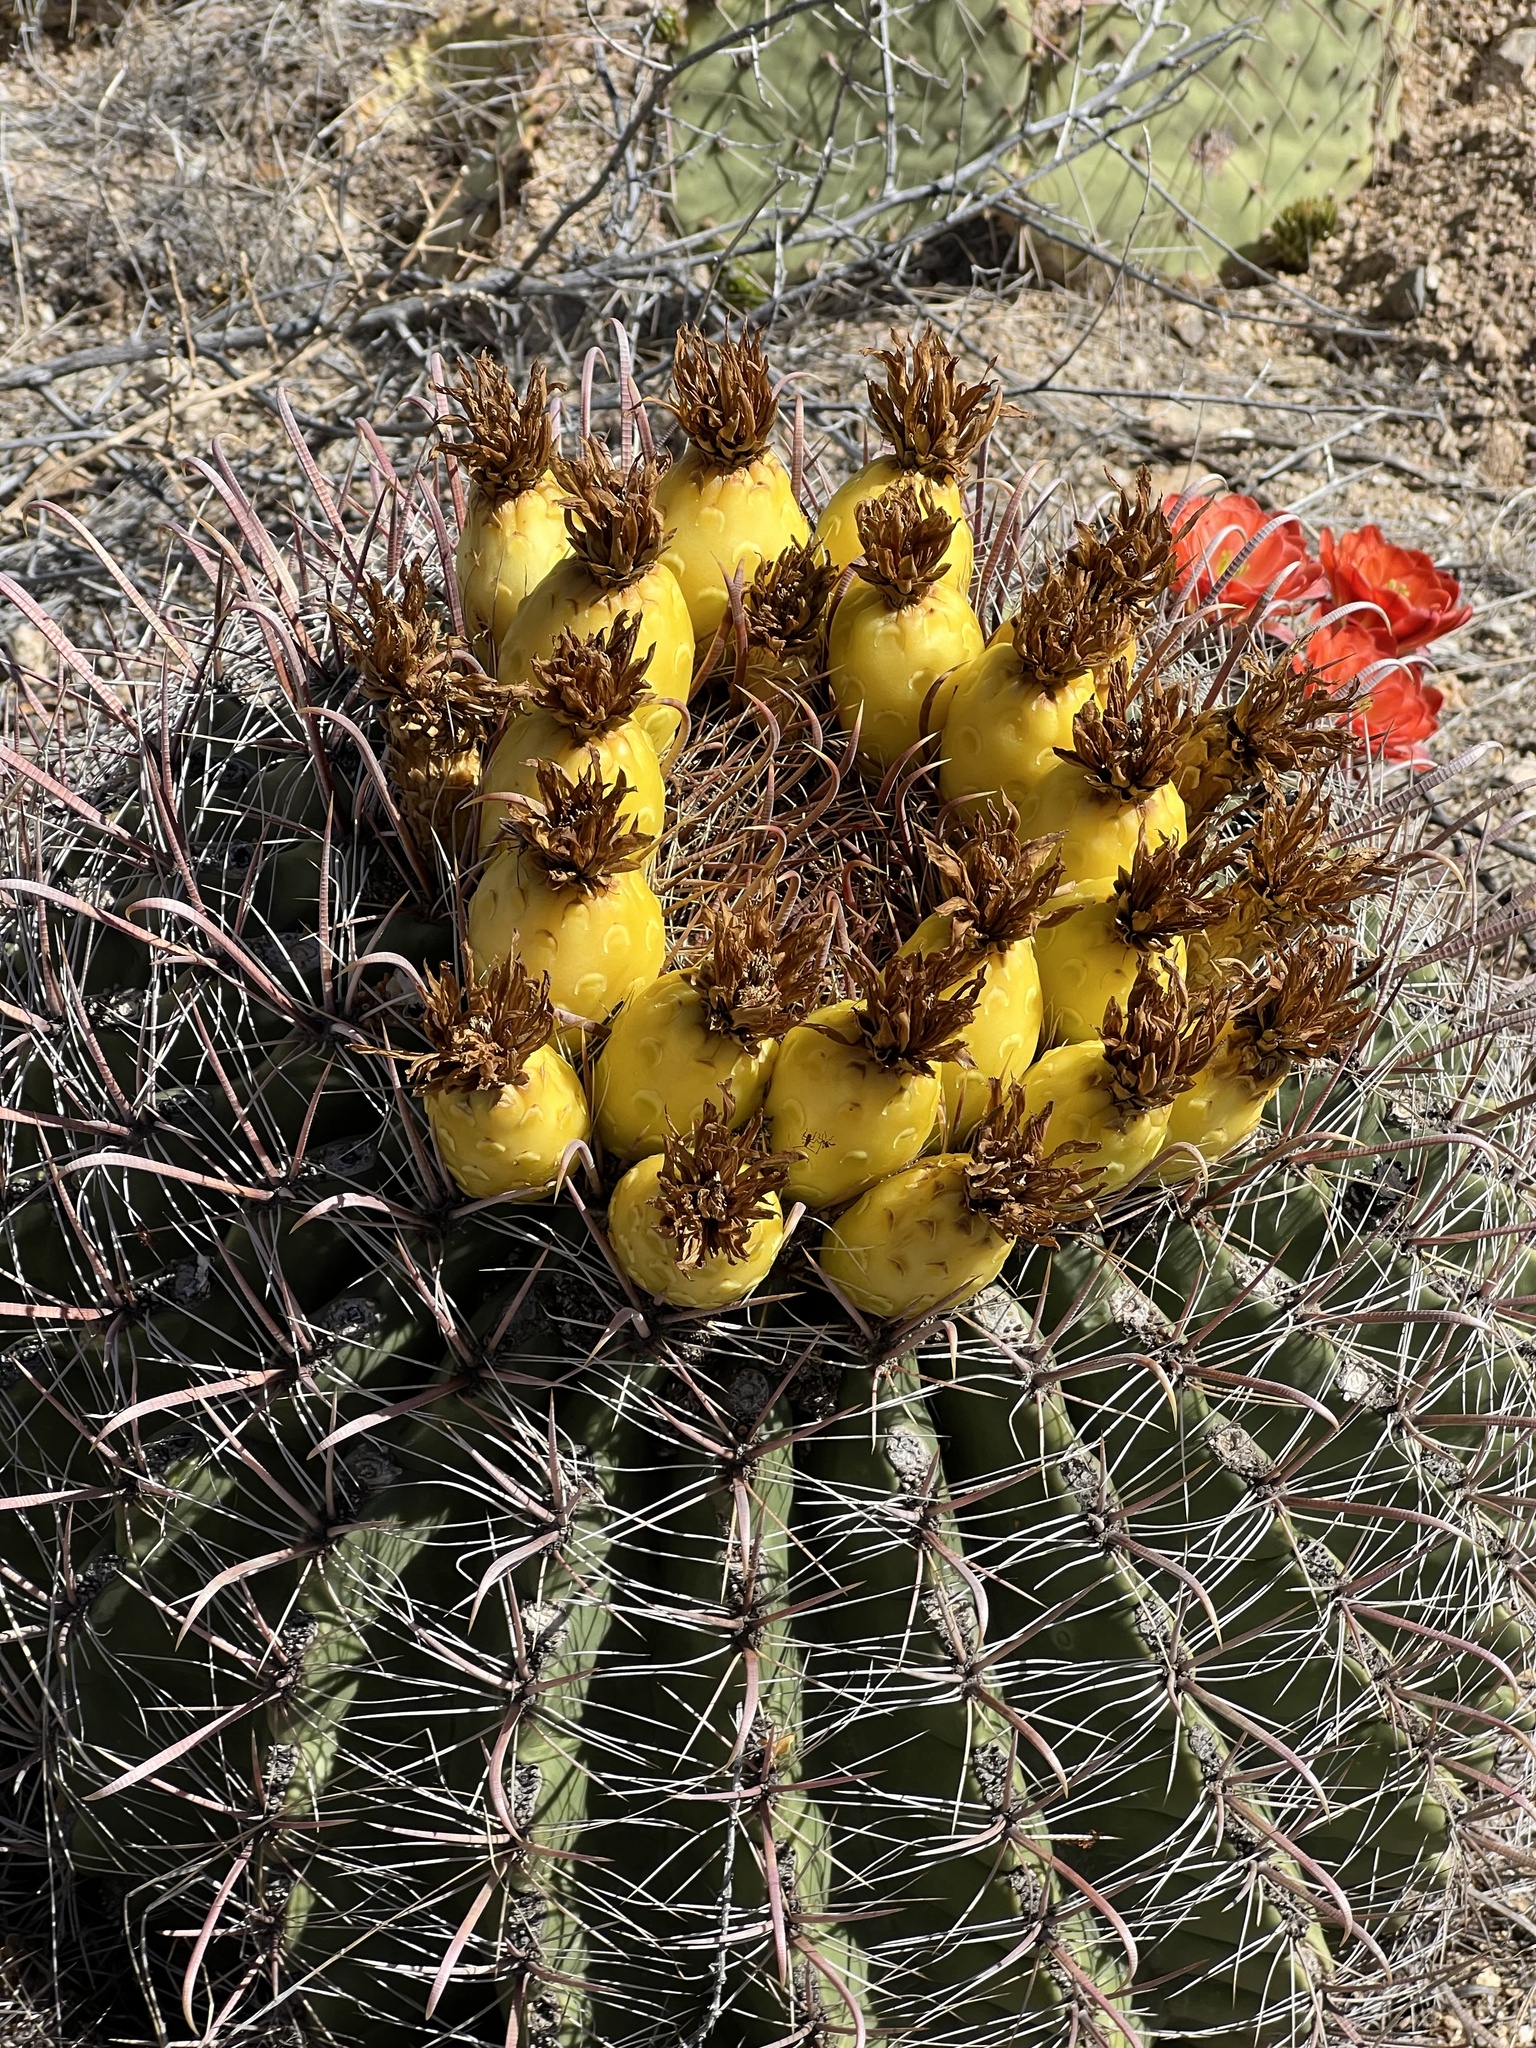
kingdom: Plantae
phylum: Tracheophyta
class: Magnoliopsida
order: Caryophyllales
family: Cactaceae
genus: Ferocactus
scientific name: Ferocactus wislizeni
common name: Candy barrel cactus
